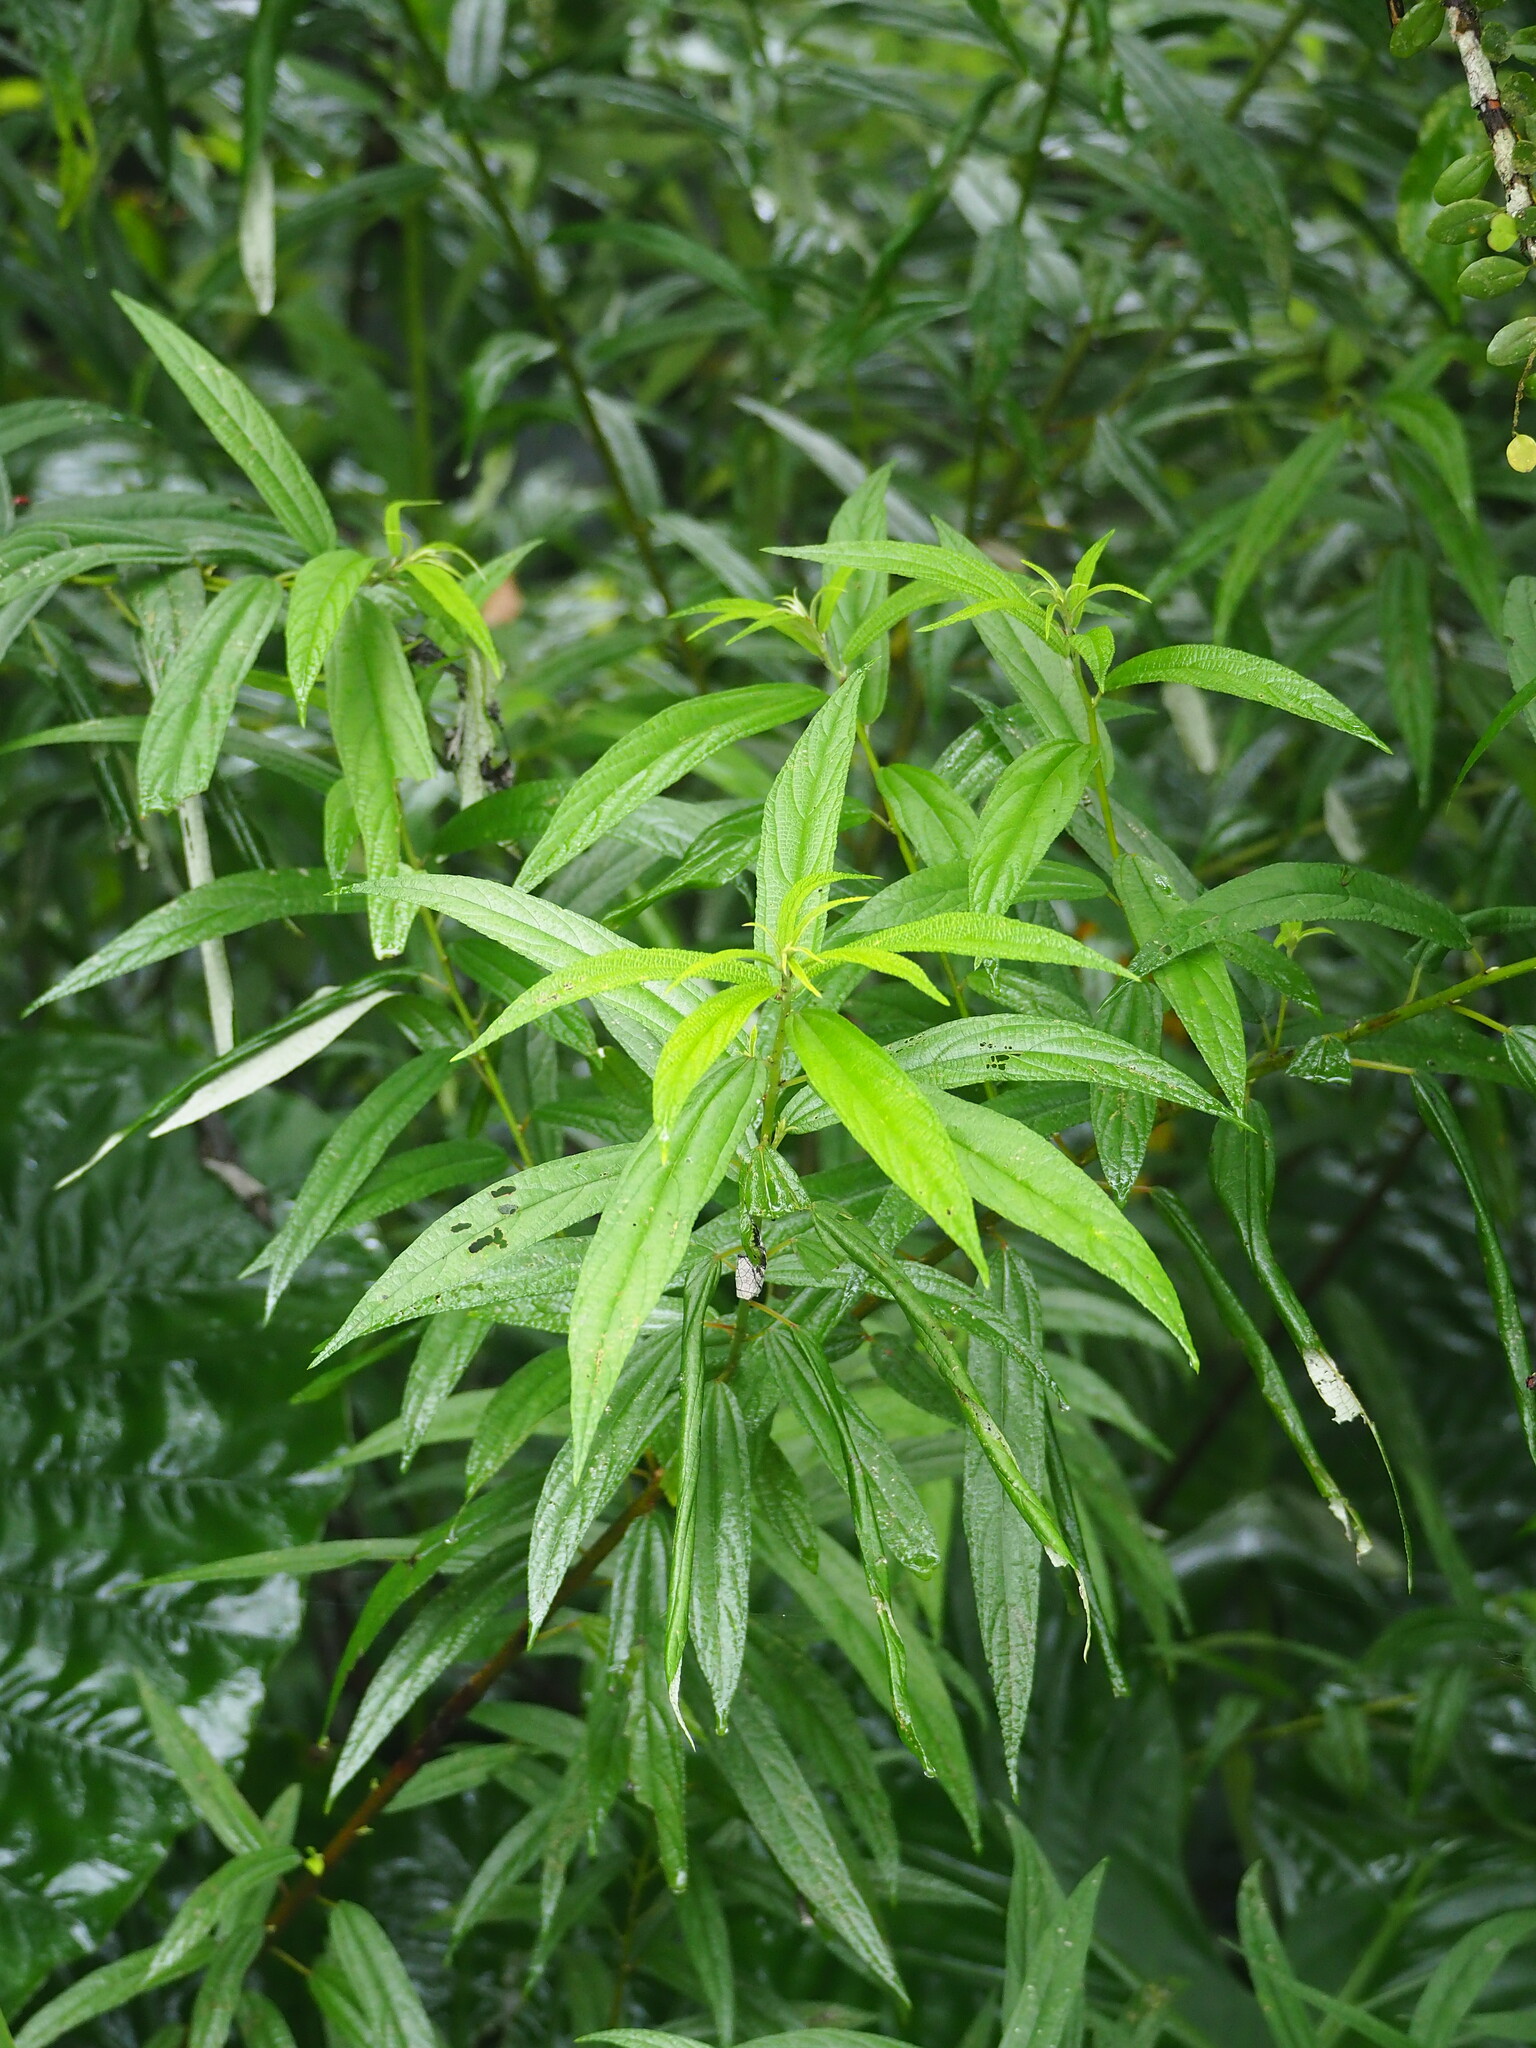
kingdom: Plantae
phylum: Tracheophyta
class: Magnoliopsida
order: Rosales
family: Urticaceae
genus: Debregeasia
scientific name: Debregeasia orientalis
